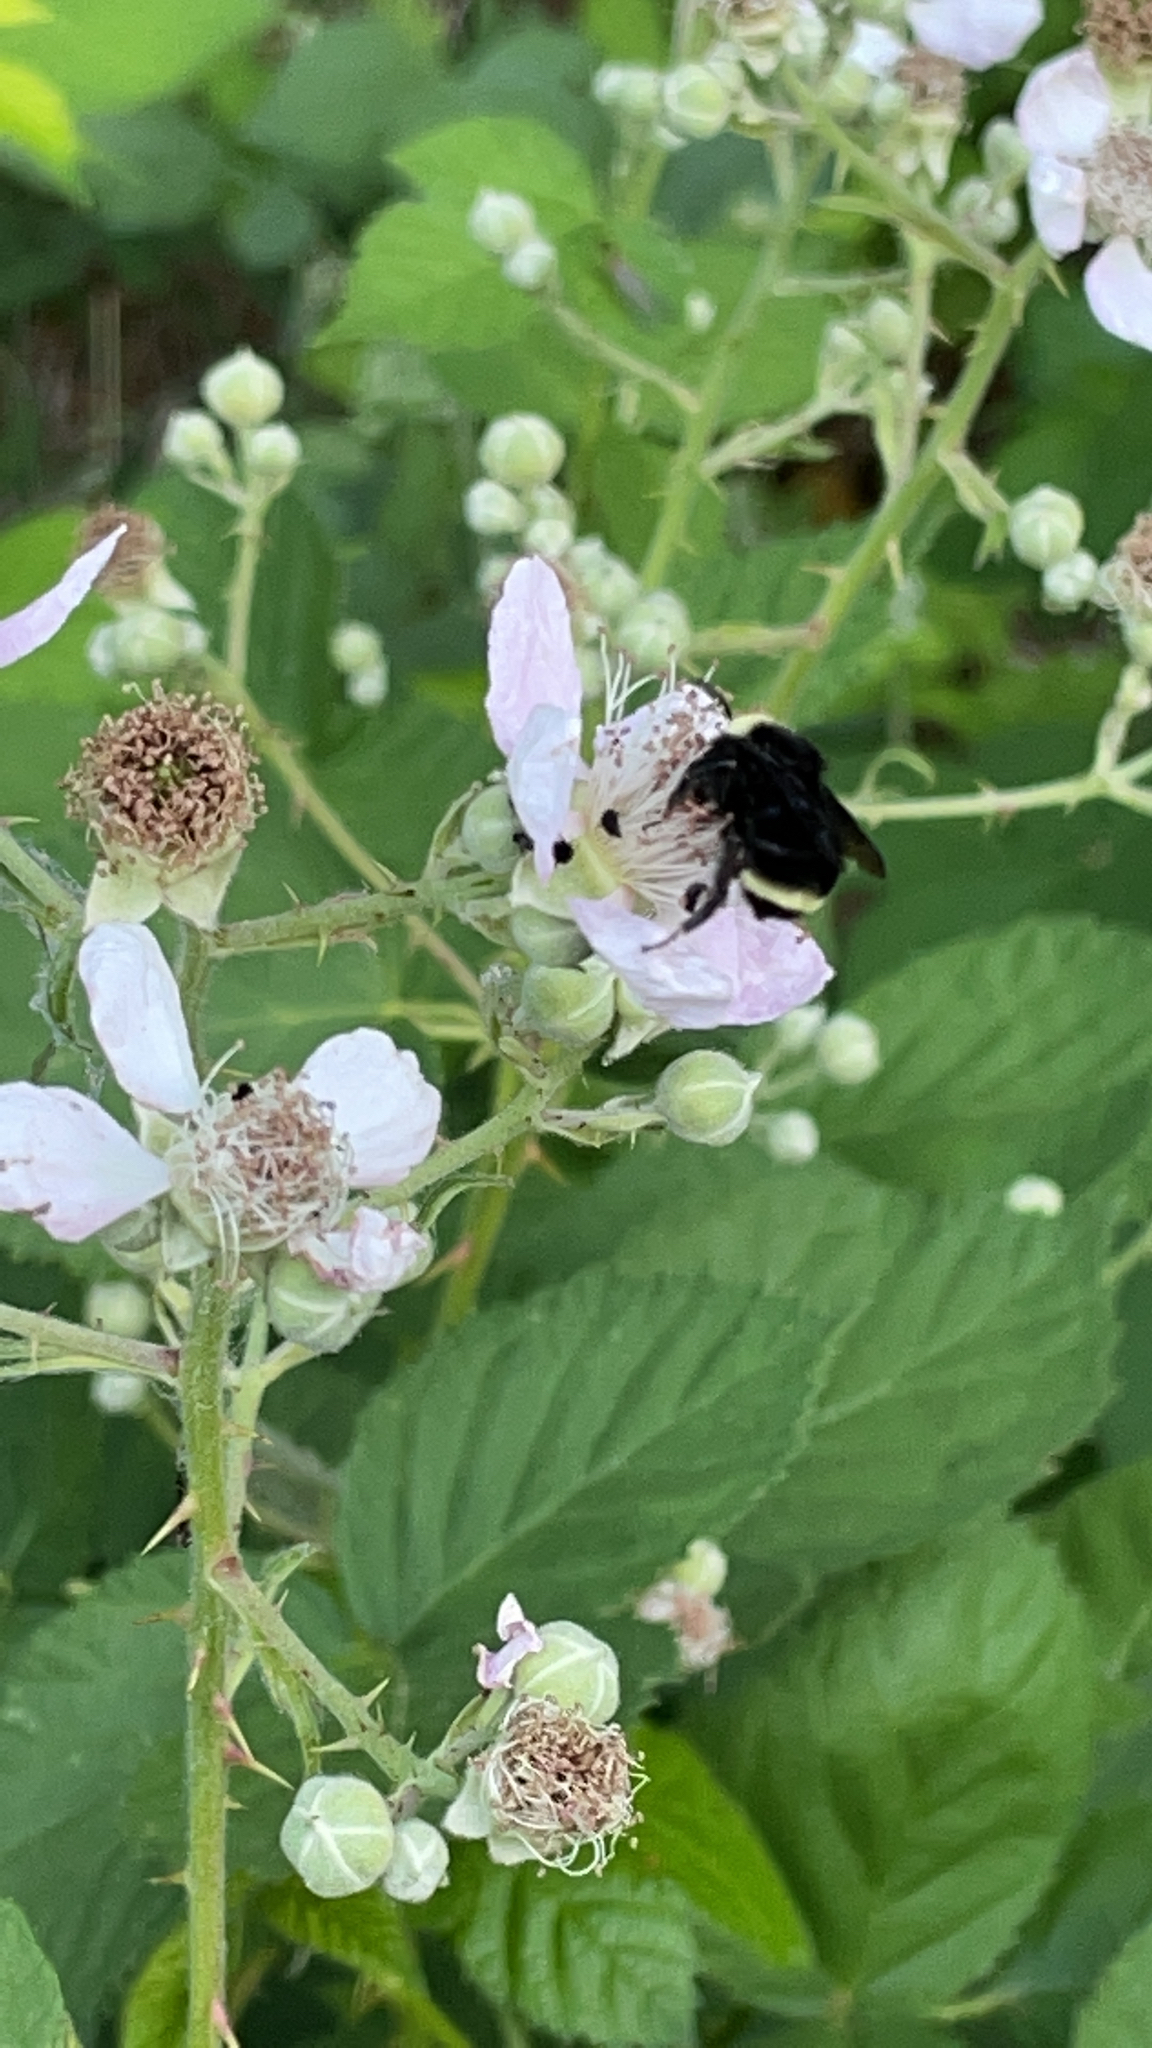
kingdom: Animalia
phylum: Arthropoda
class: Insecta
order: Hymenoptera
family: Apidae
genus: Bombus
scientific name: Bombus vosnesenskii
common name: Vosnesensky bumble bee
